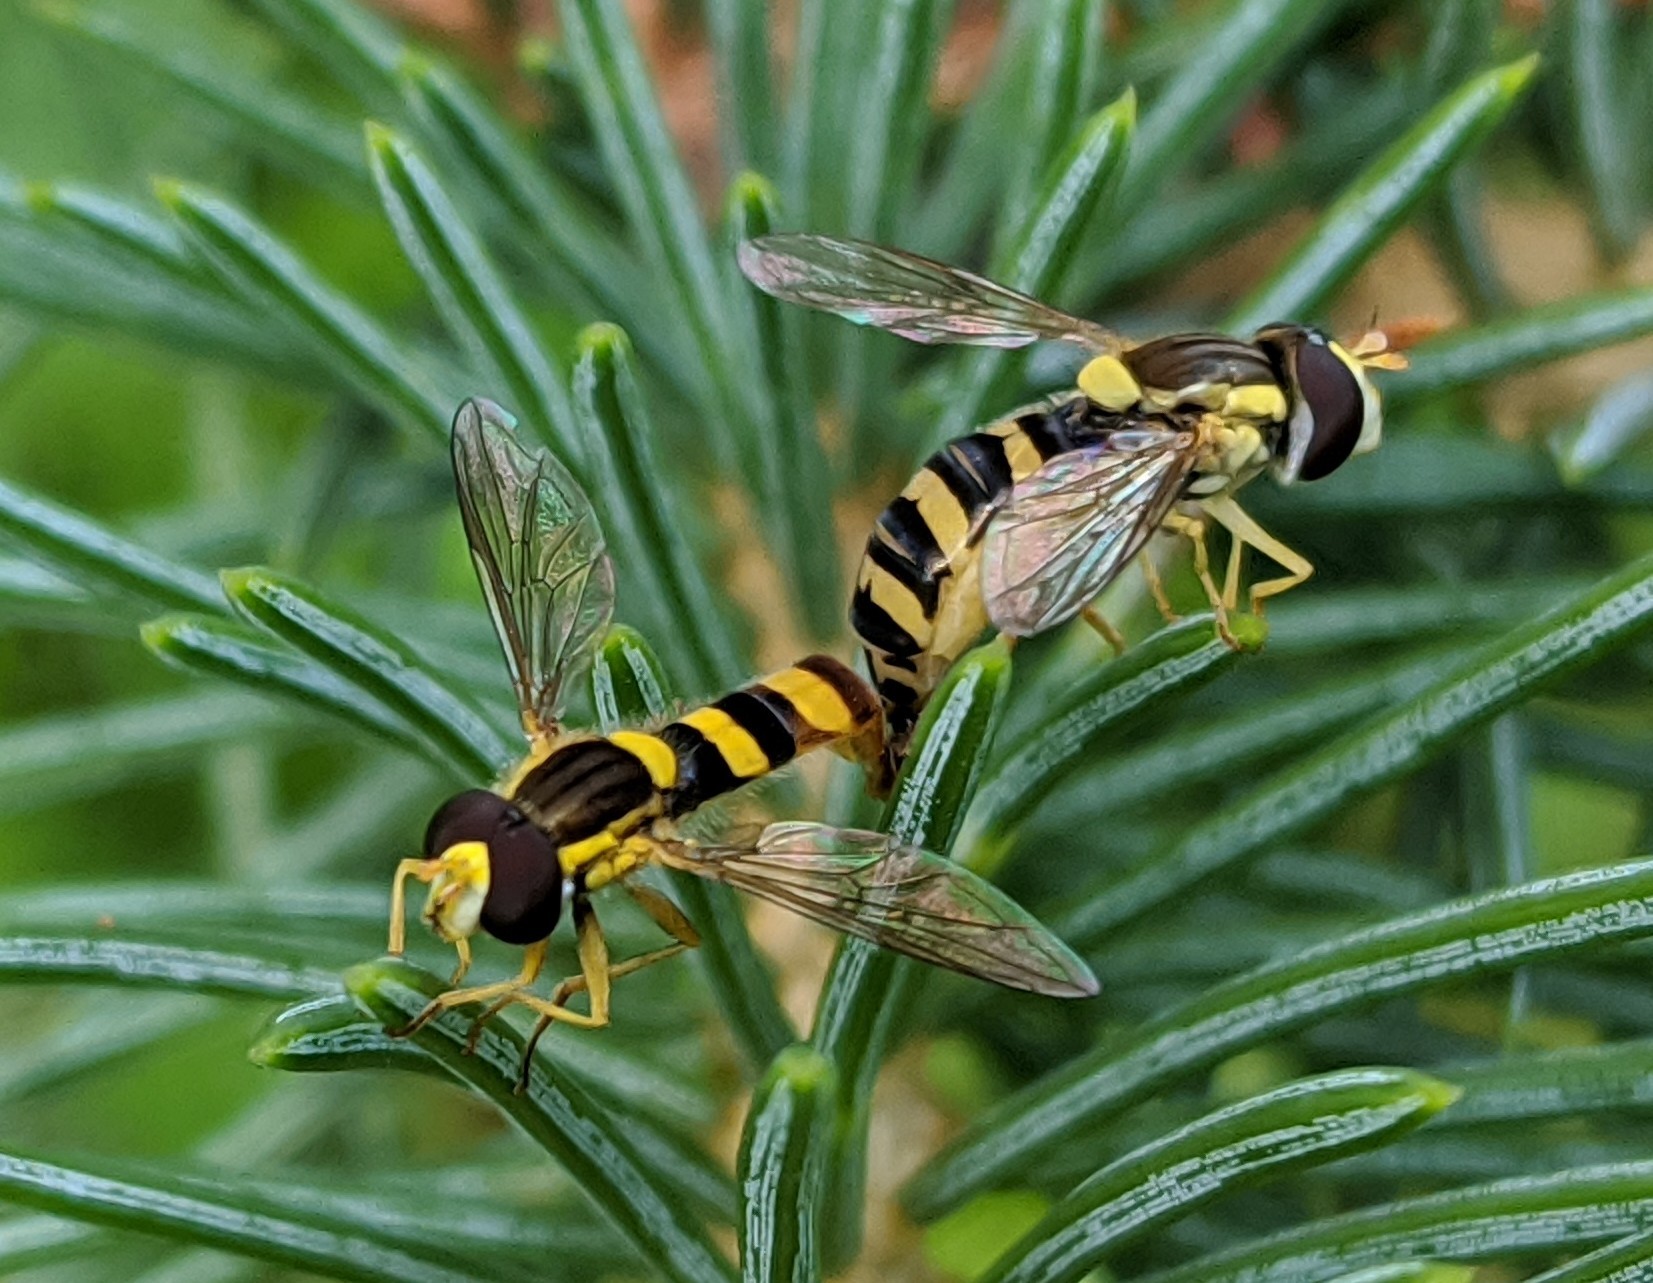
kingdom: Animalia
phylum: Arthropoda
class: Insecta
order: Diptera
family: Syrphidae
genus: Sphaerophoria
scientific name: Sphaerophoria scripta
